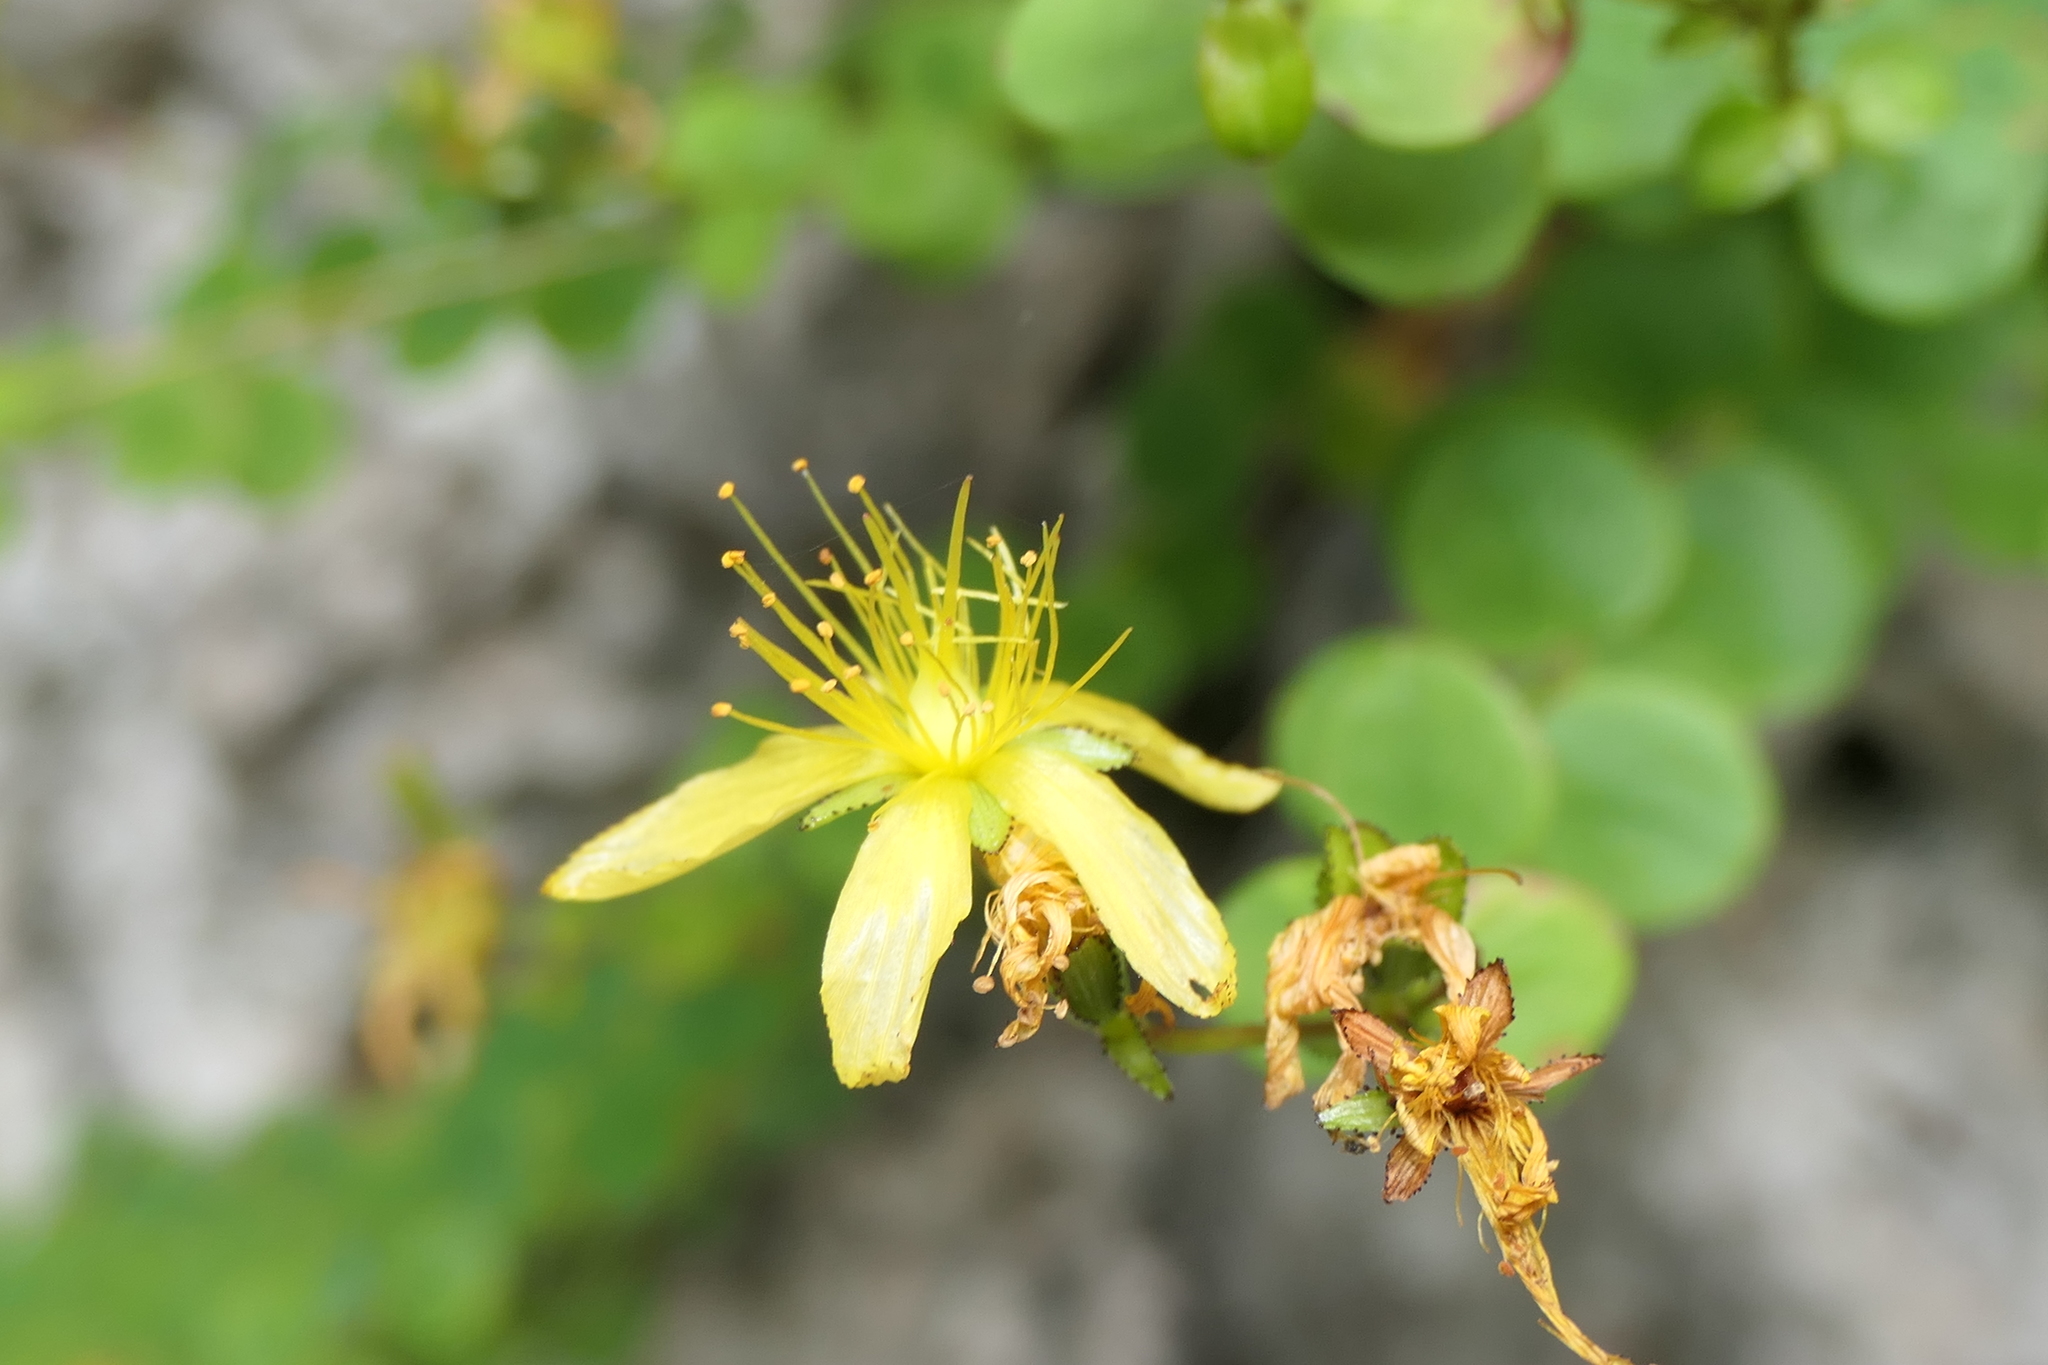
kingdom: Plantae
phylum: Tracheophyta
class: Magnoliopsida
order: Malpighiales
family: Hypericaceae
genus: Hypericum
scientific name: Hypericum nummularium
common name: Round-leaved st john's-wort
